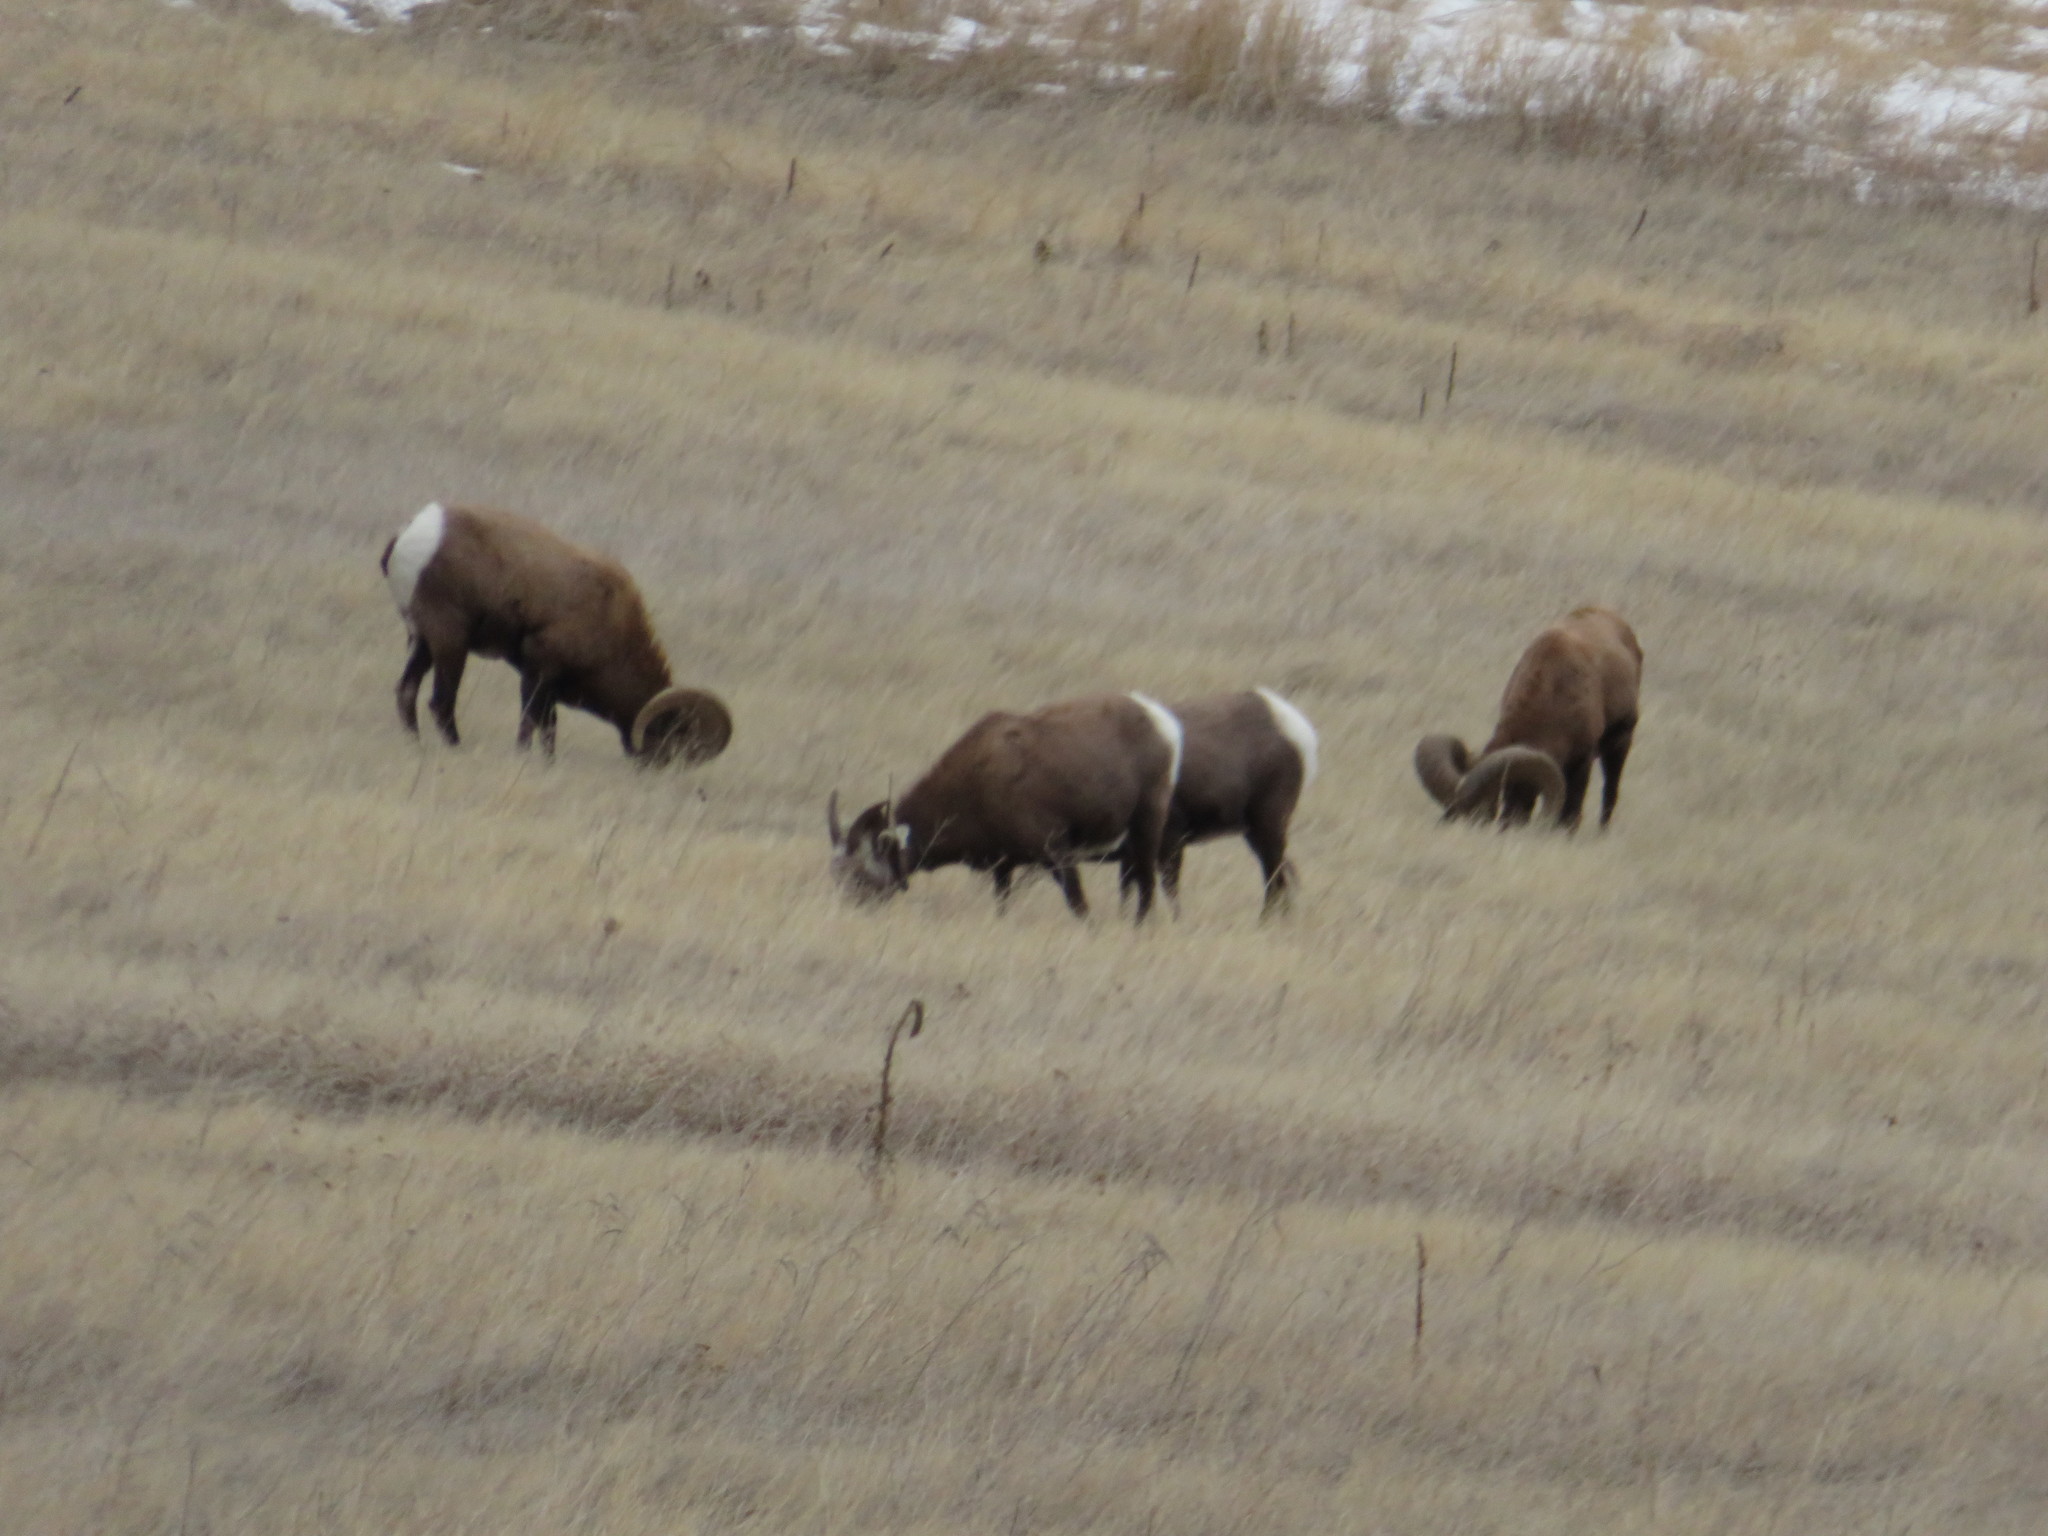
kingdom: Animalia
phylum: Chordata
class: Mammalia
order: Artiodactyla
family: Bovidae
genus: Ovis
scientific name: Ovis canadensis
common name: Bighorn sheep
